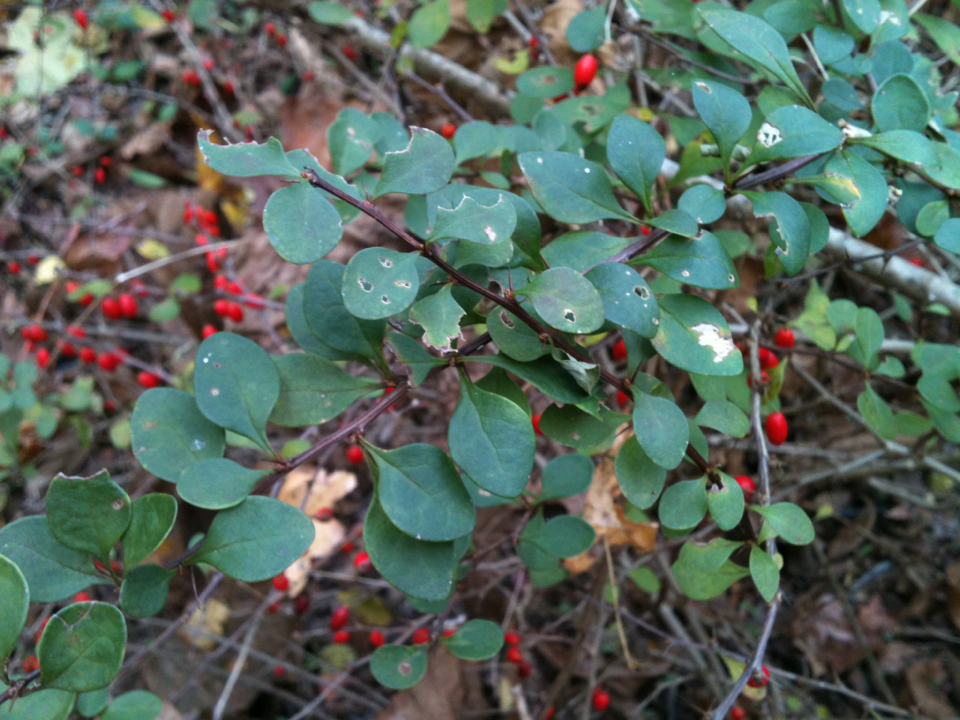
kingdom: Plantae
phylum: Tracheophyta
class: Magnoliopsida
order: Ranunculales
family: Berberidaceae
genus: Berberis
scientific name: Berberis thunbergii
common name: Japanese barberry
